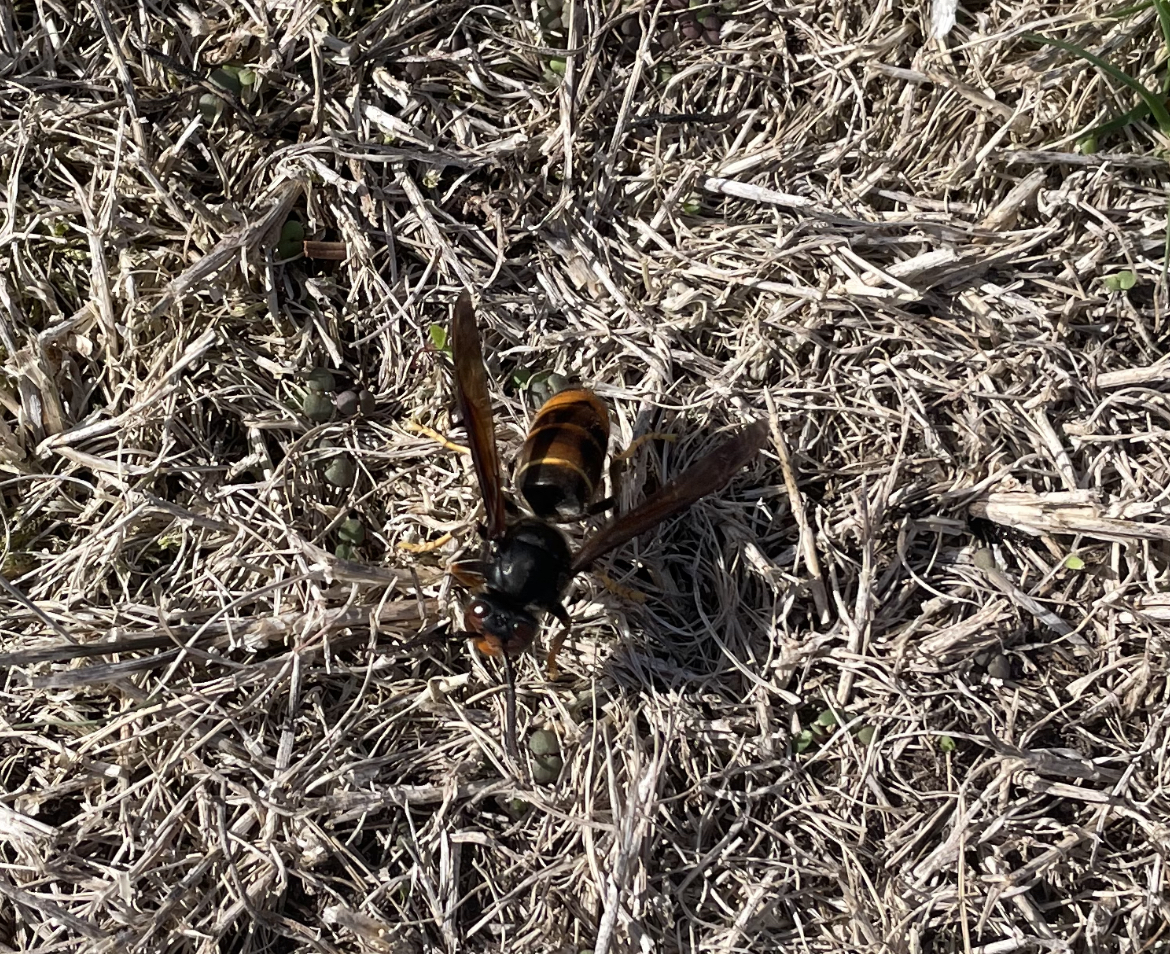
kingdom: Animalia
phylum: Arthropoda
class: Insecta
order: Hymenoptera
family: Vespidae
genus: Vespa
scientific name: Vespa velutina
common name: Asian hornet
